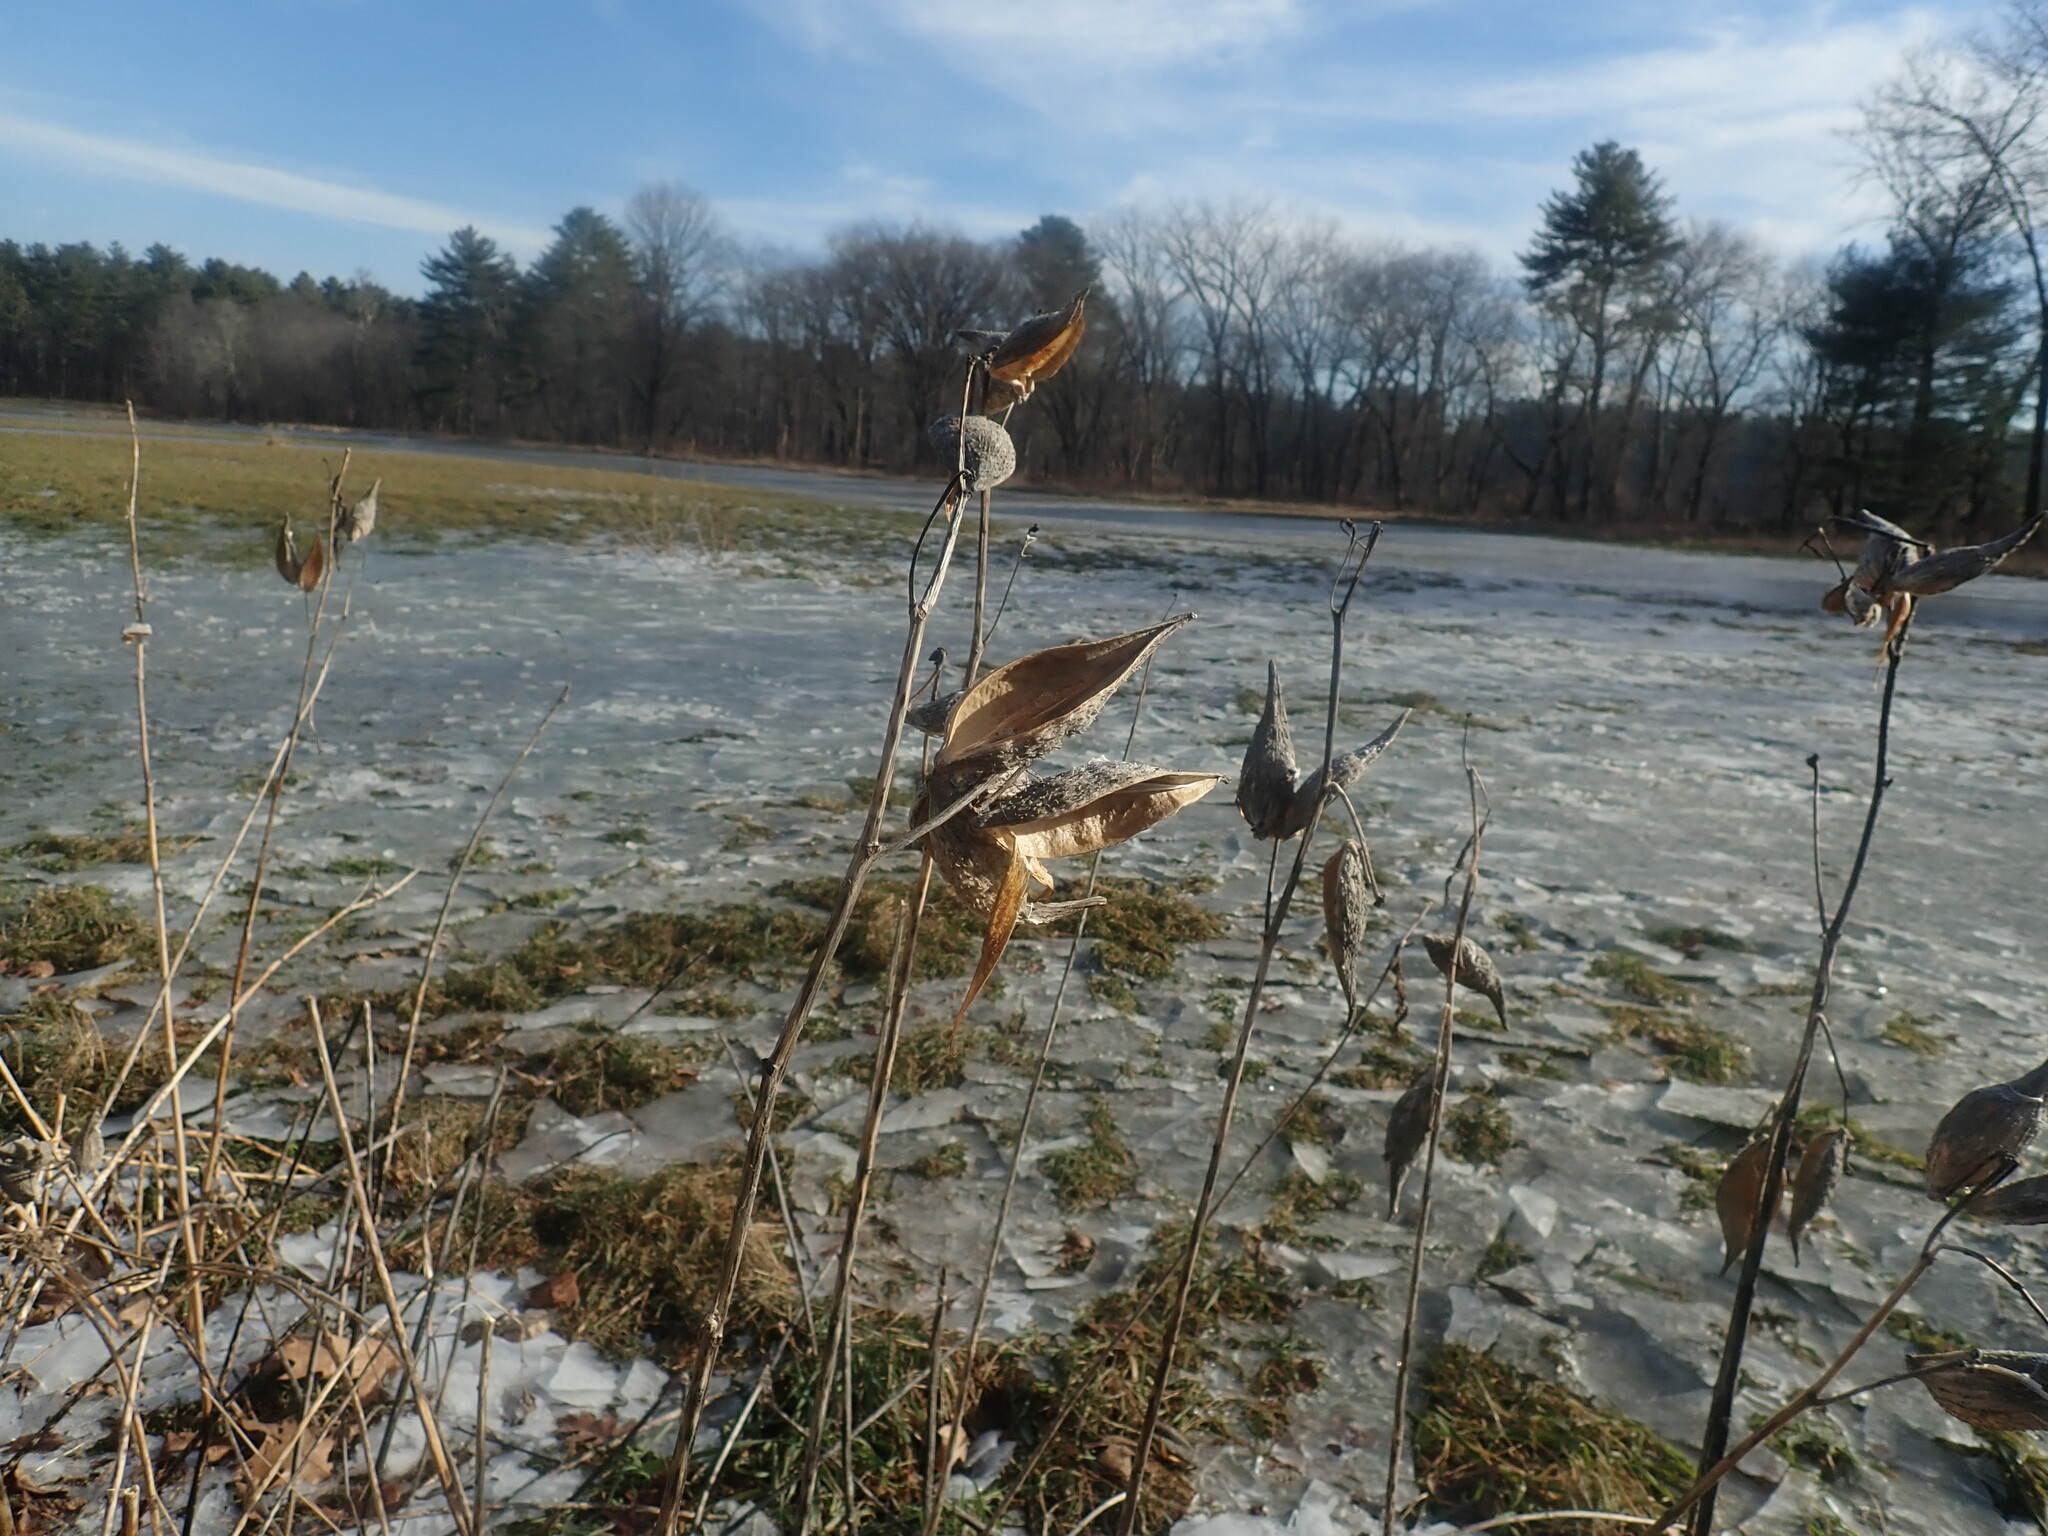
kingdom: Plantae
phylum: Tracheophyta
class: Magnoliopsida
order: Gentianales
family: Apocynaceae
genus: Asclepias
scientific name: Asclepias syriaca
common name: Common milkweed
